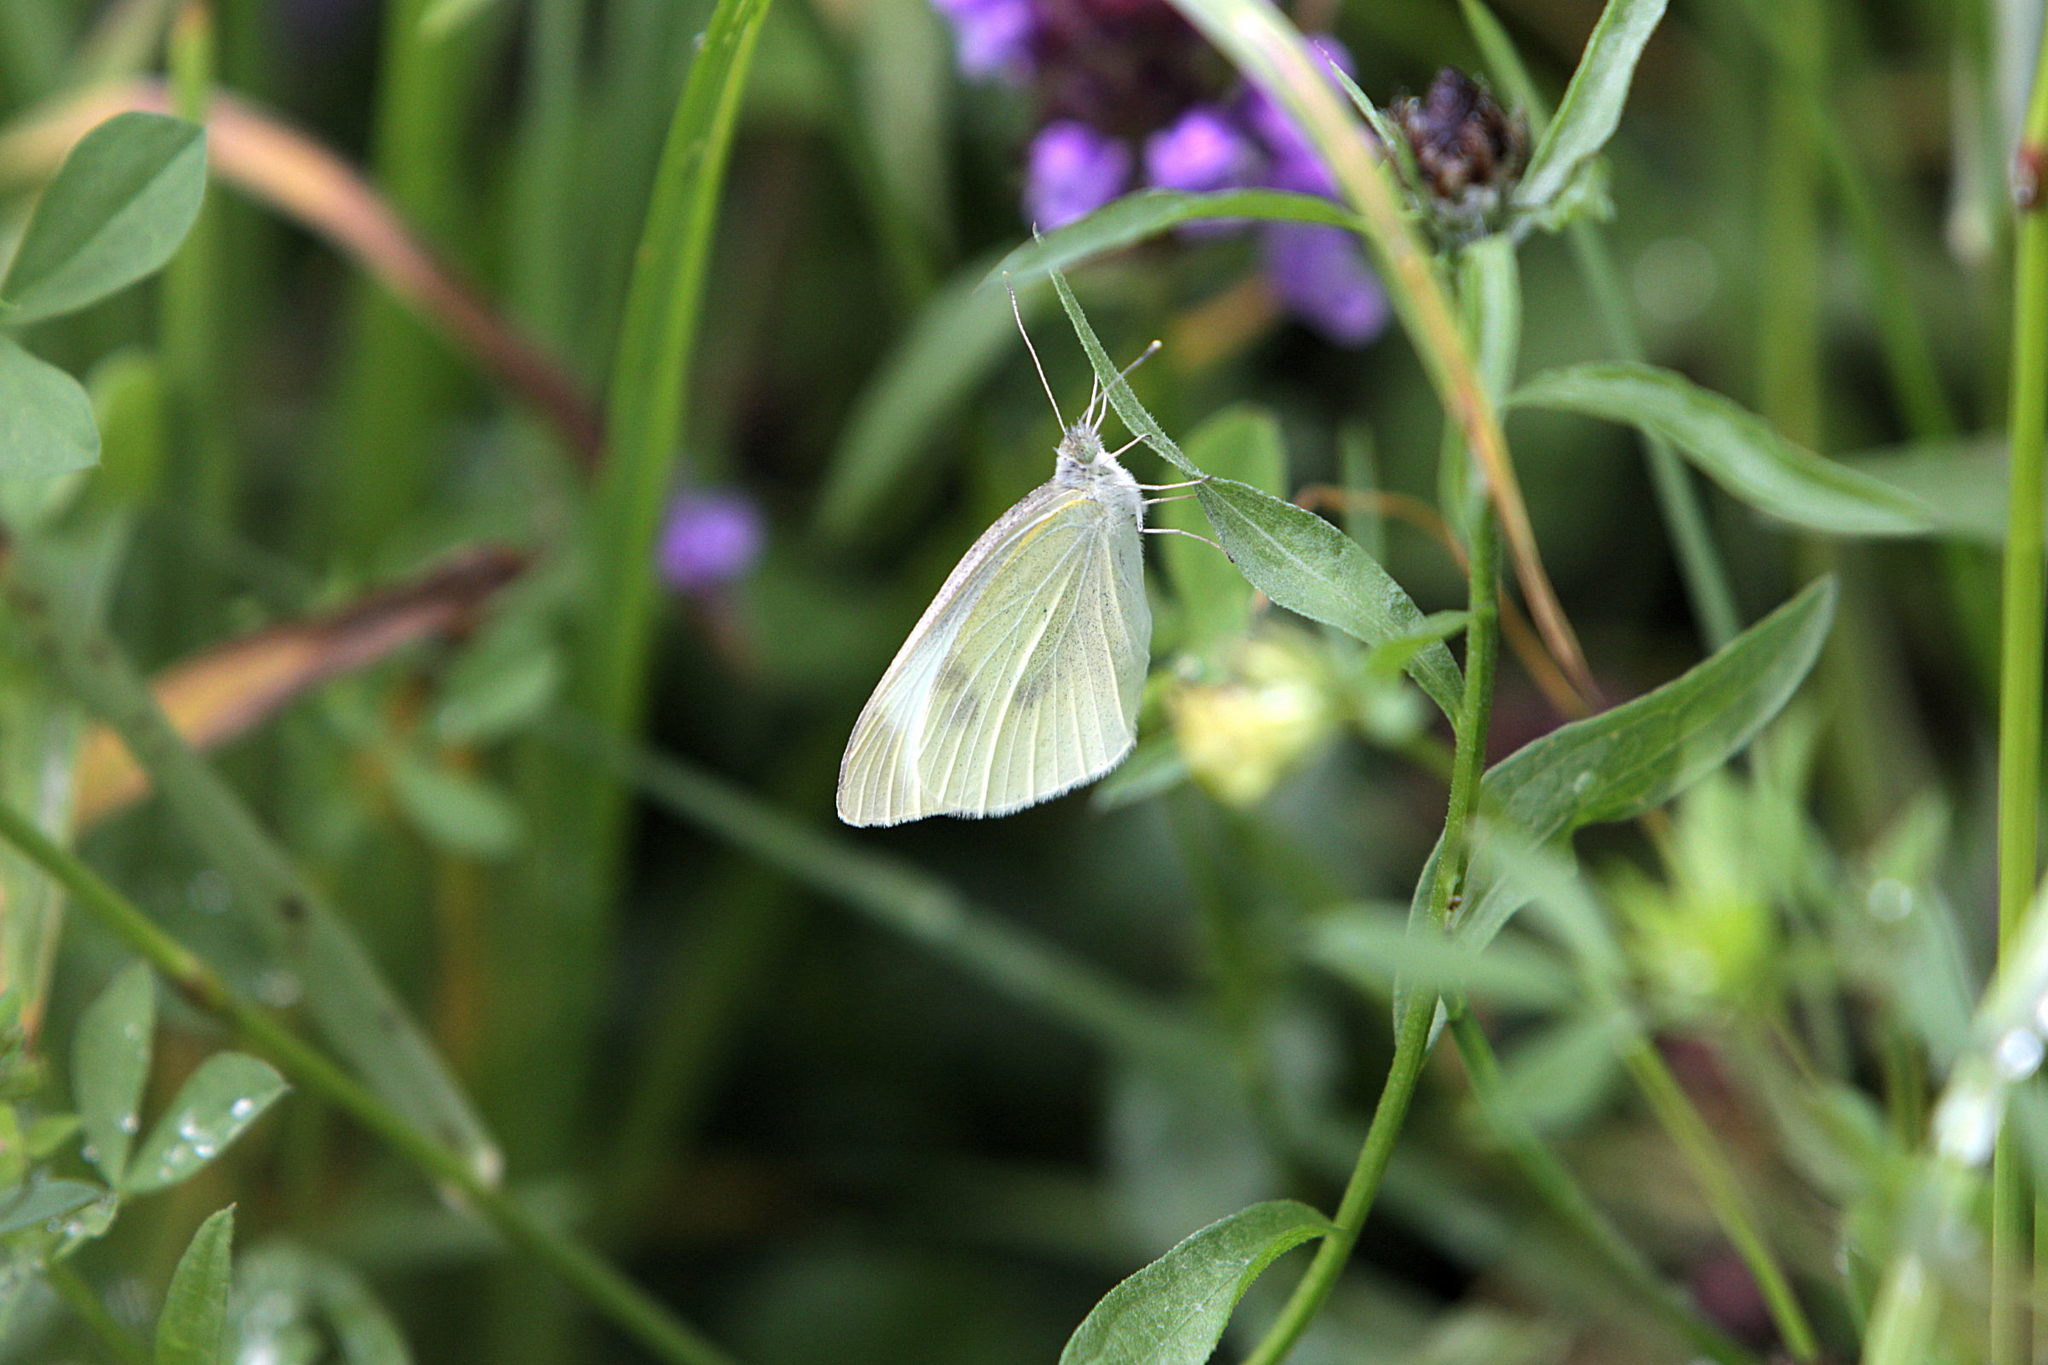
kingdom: Animalia
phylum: Arthropoda
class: Insecta
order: Lepidoptera
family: Pieridae
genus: Pieris
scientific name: Pieris rapae
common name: Small white
